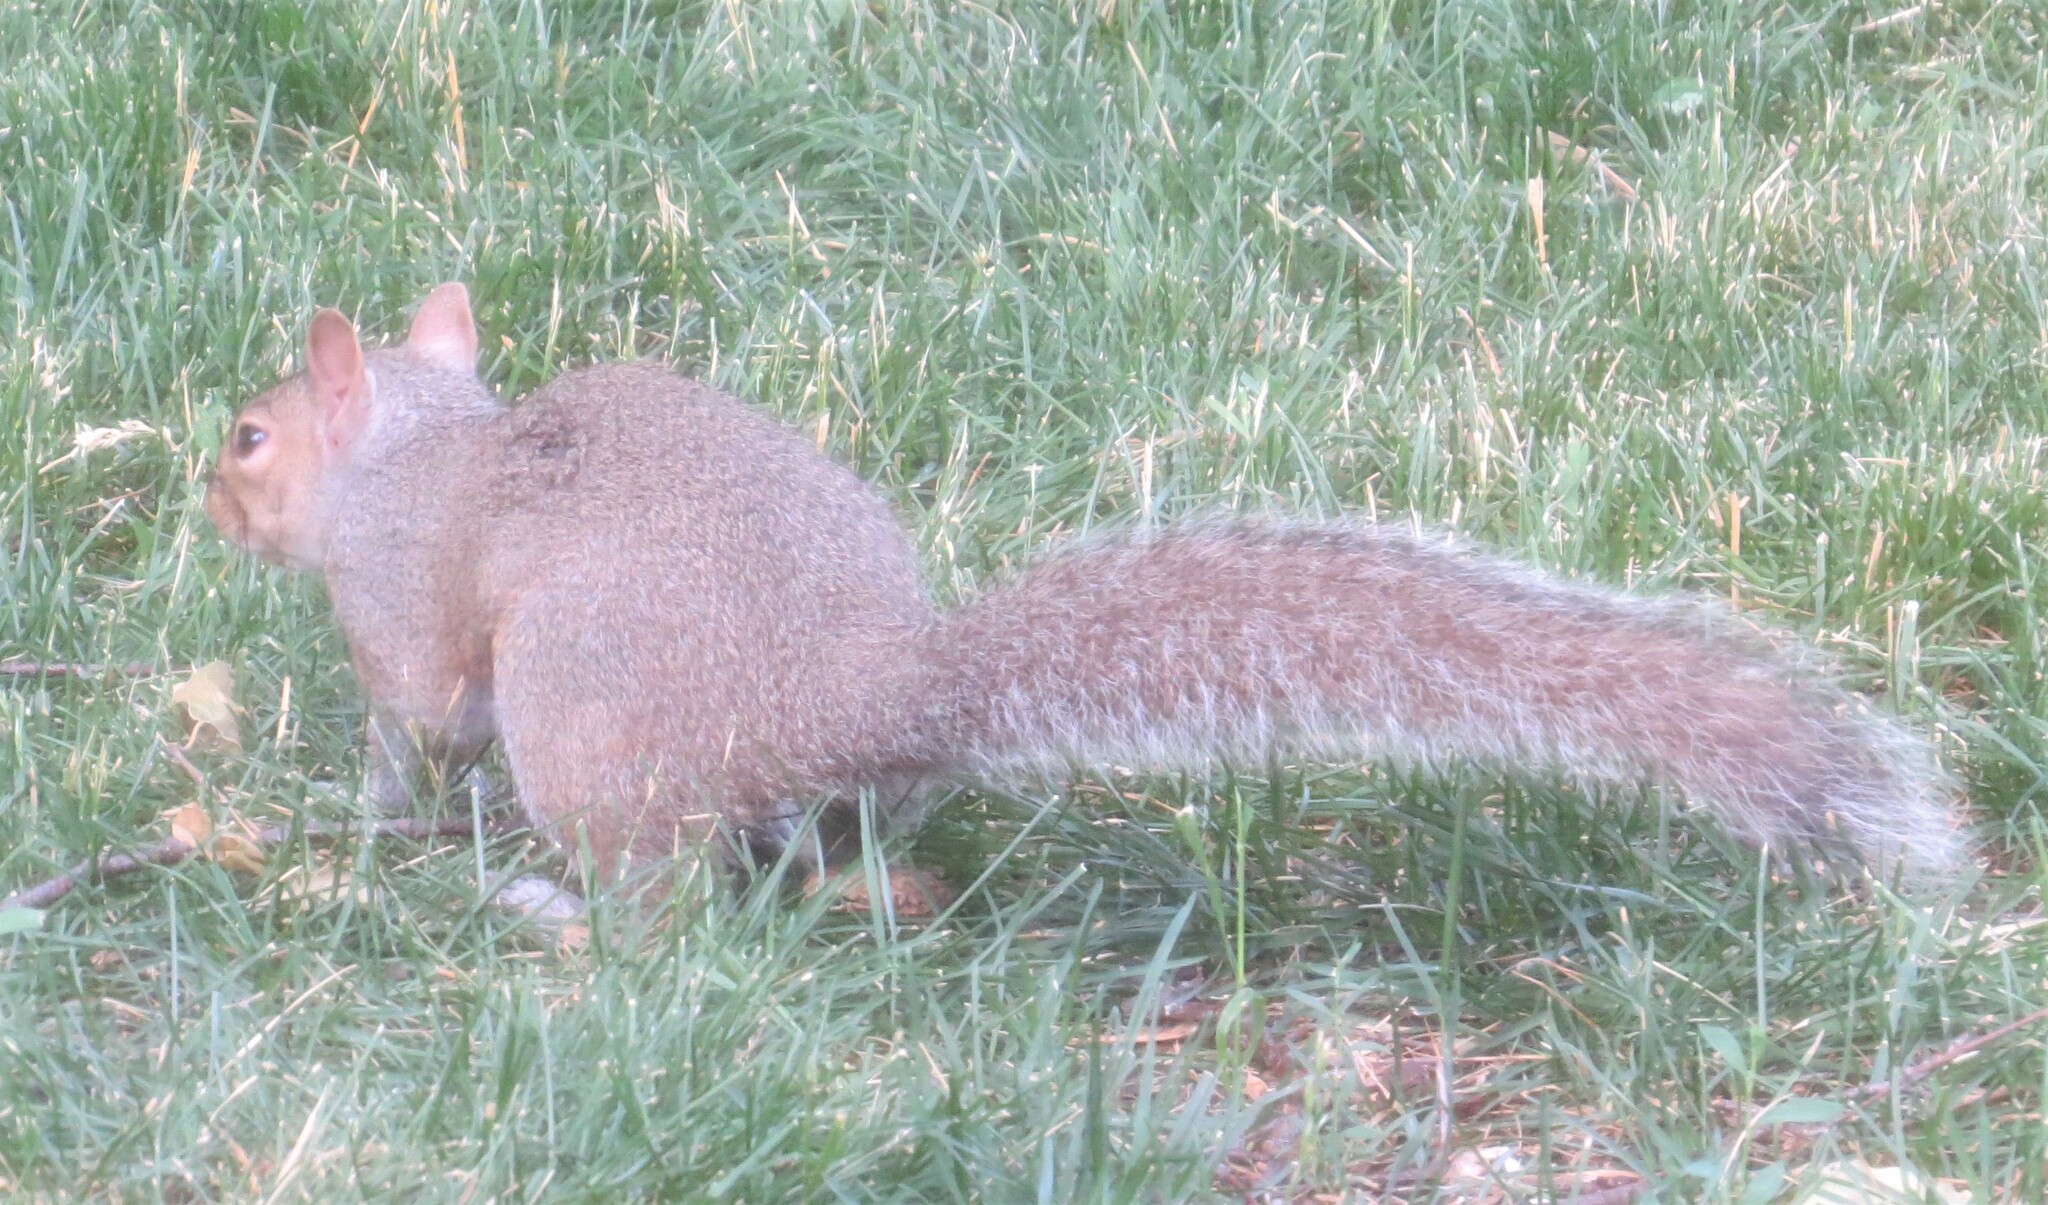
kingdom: Animalia
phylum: Chordata
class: Mammalia
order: Rodentia
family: Sciuridae
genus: Sciurus
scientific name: Sciurus carolinensis
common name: Eastern gray squirrel
